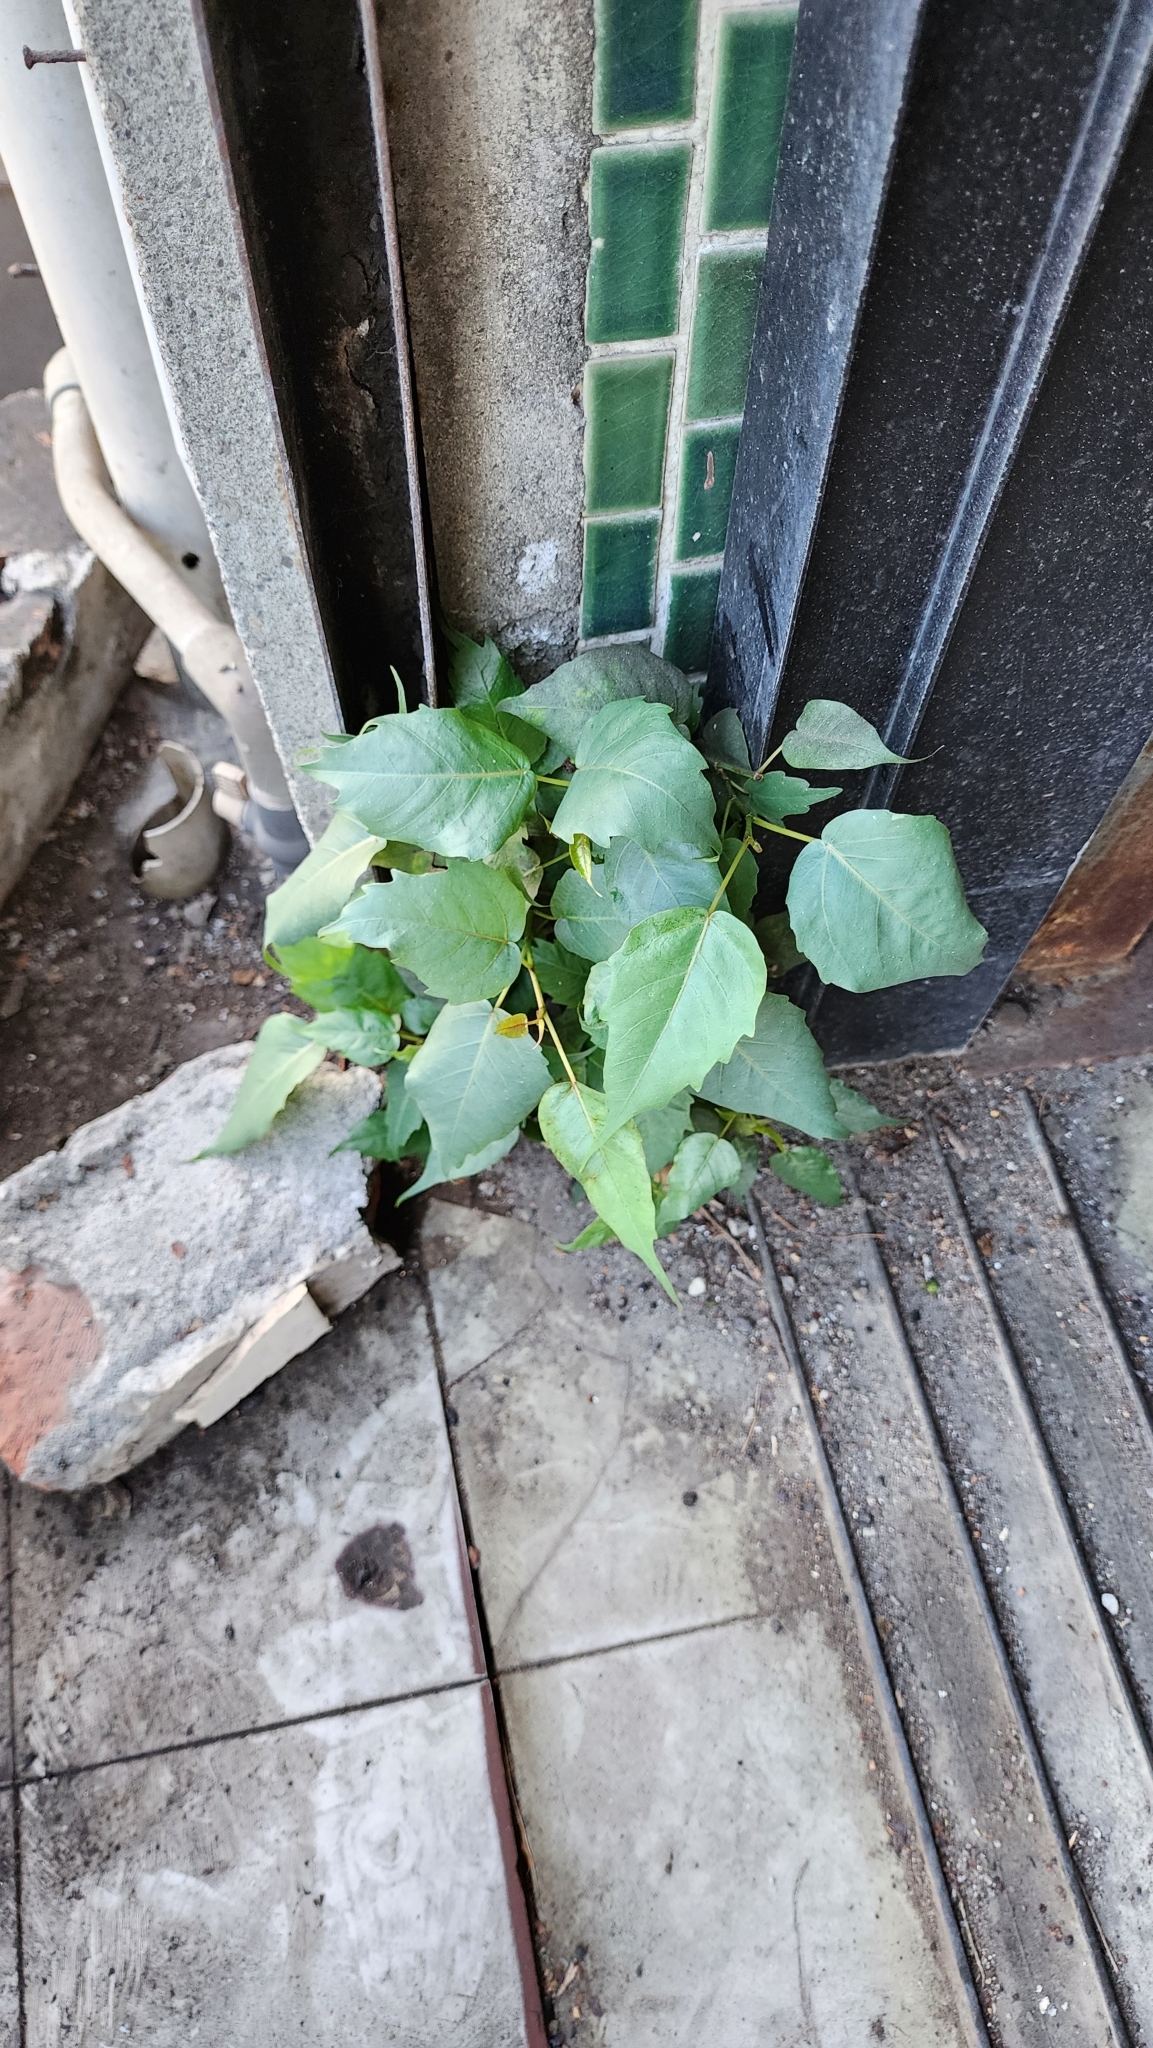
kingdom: Plantae
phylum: Tracheophyta
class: Magnoliopsida
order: Rosales
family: Moraceae
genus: Ficus
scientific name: Ficus religiosa
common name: Bodhi tree
